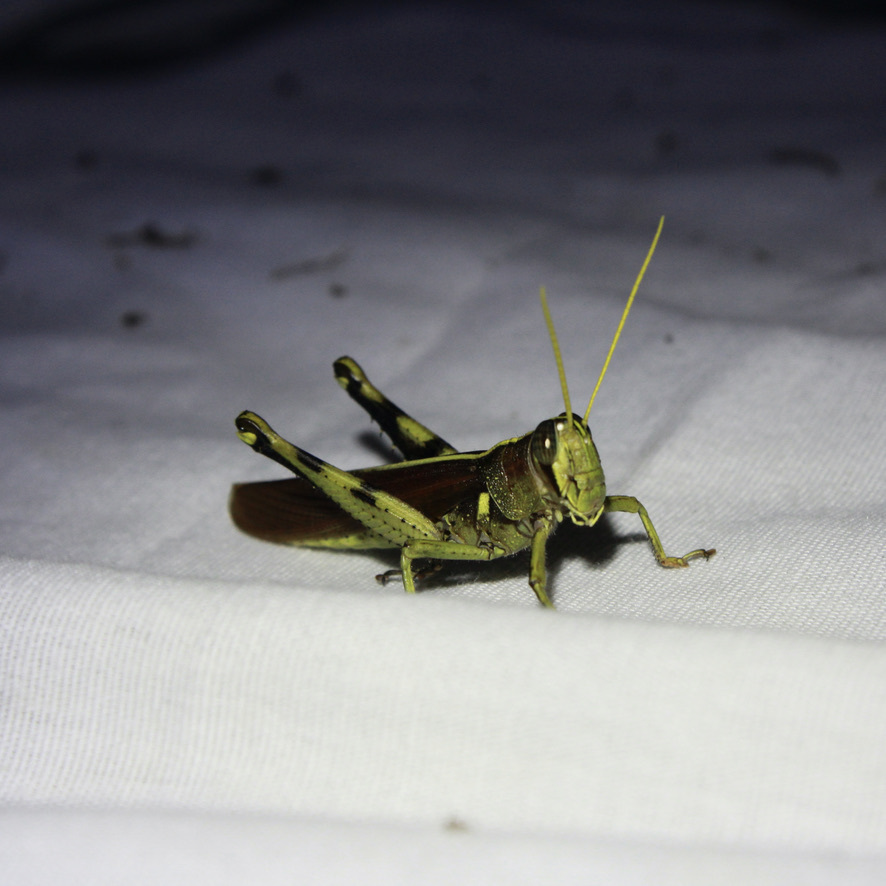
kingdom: Animalia
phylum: Arthropoda
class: Insecta
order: Orthoptera
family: Acrididae
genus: Schistocerca
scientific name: Schistocerca obscura
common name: Obscure bird grasshopper
